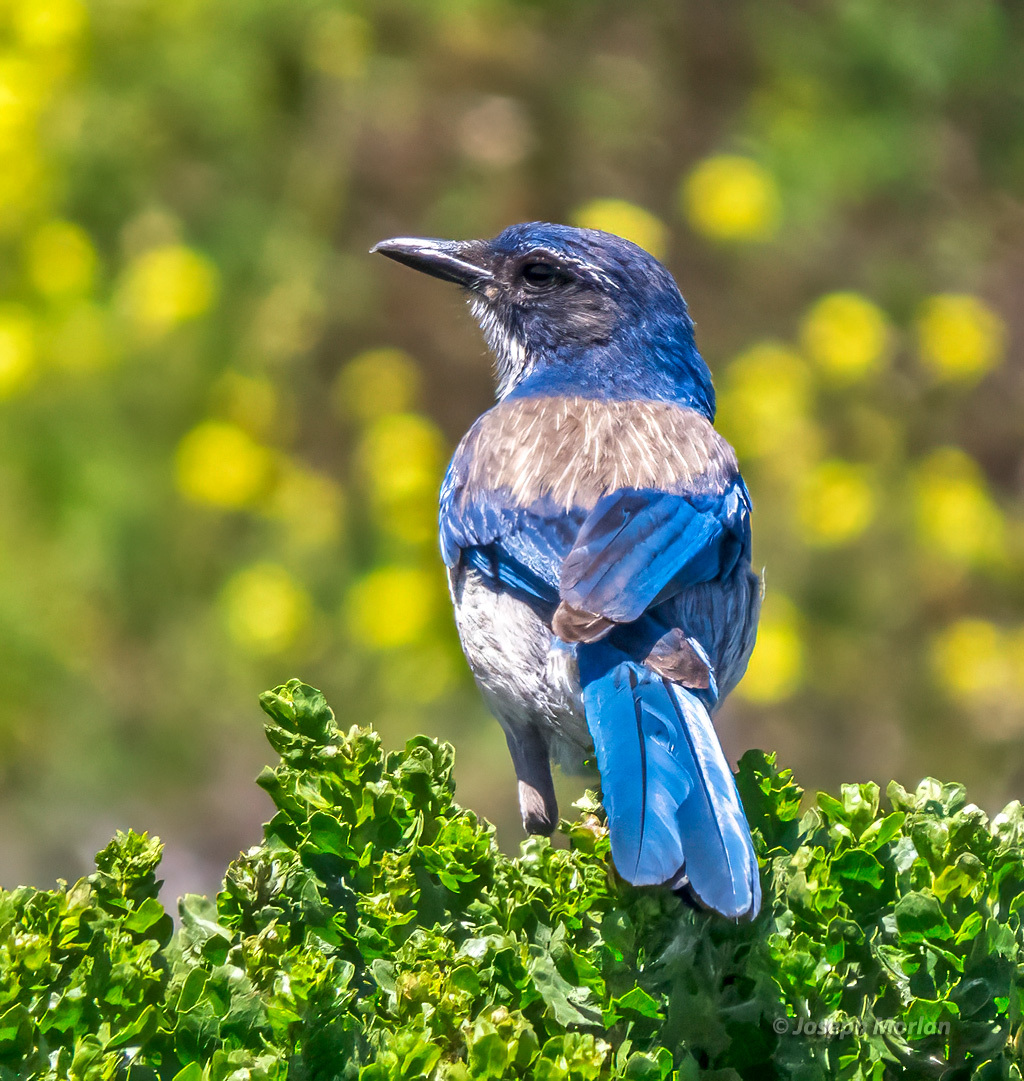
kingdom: Animalia
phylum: Chordata
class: Aves
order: Passeriformes
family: Corvidae
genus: Aphelocoma
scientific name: Aphelocoma californica
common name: California scrub-jay
